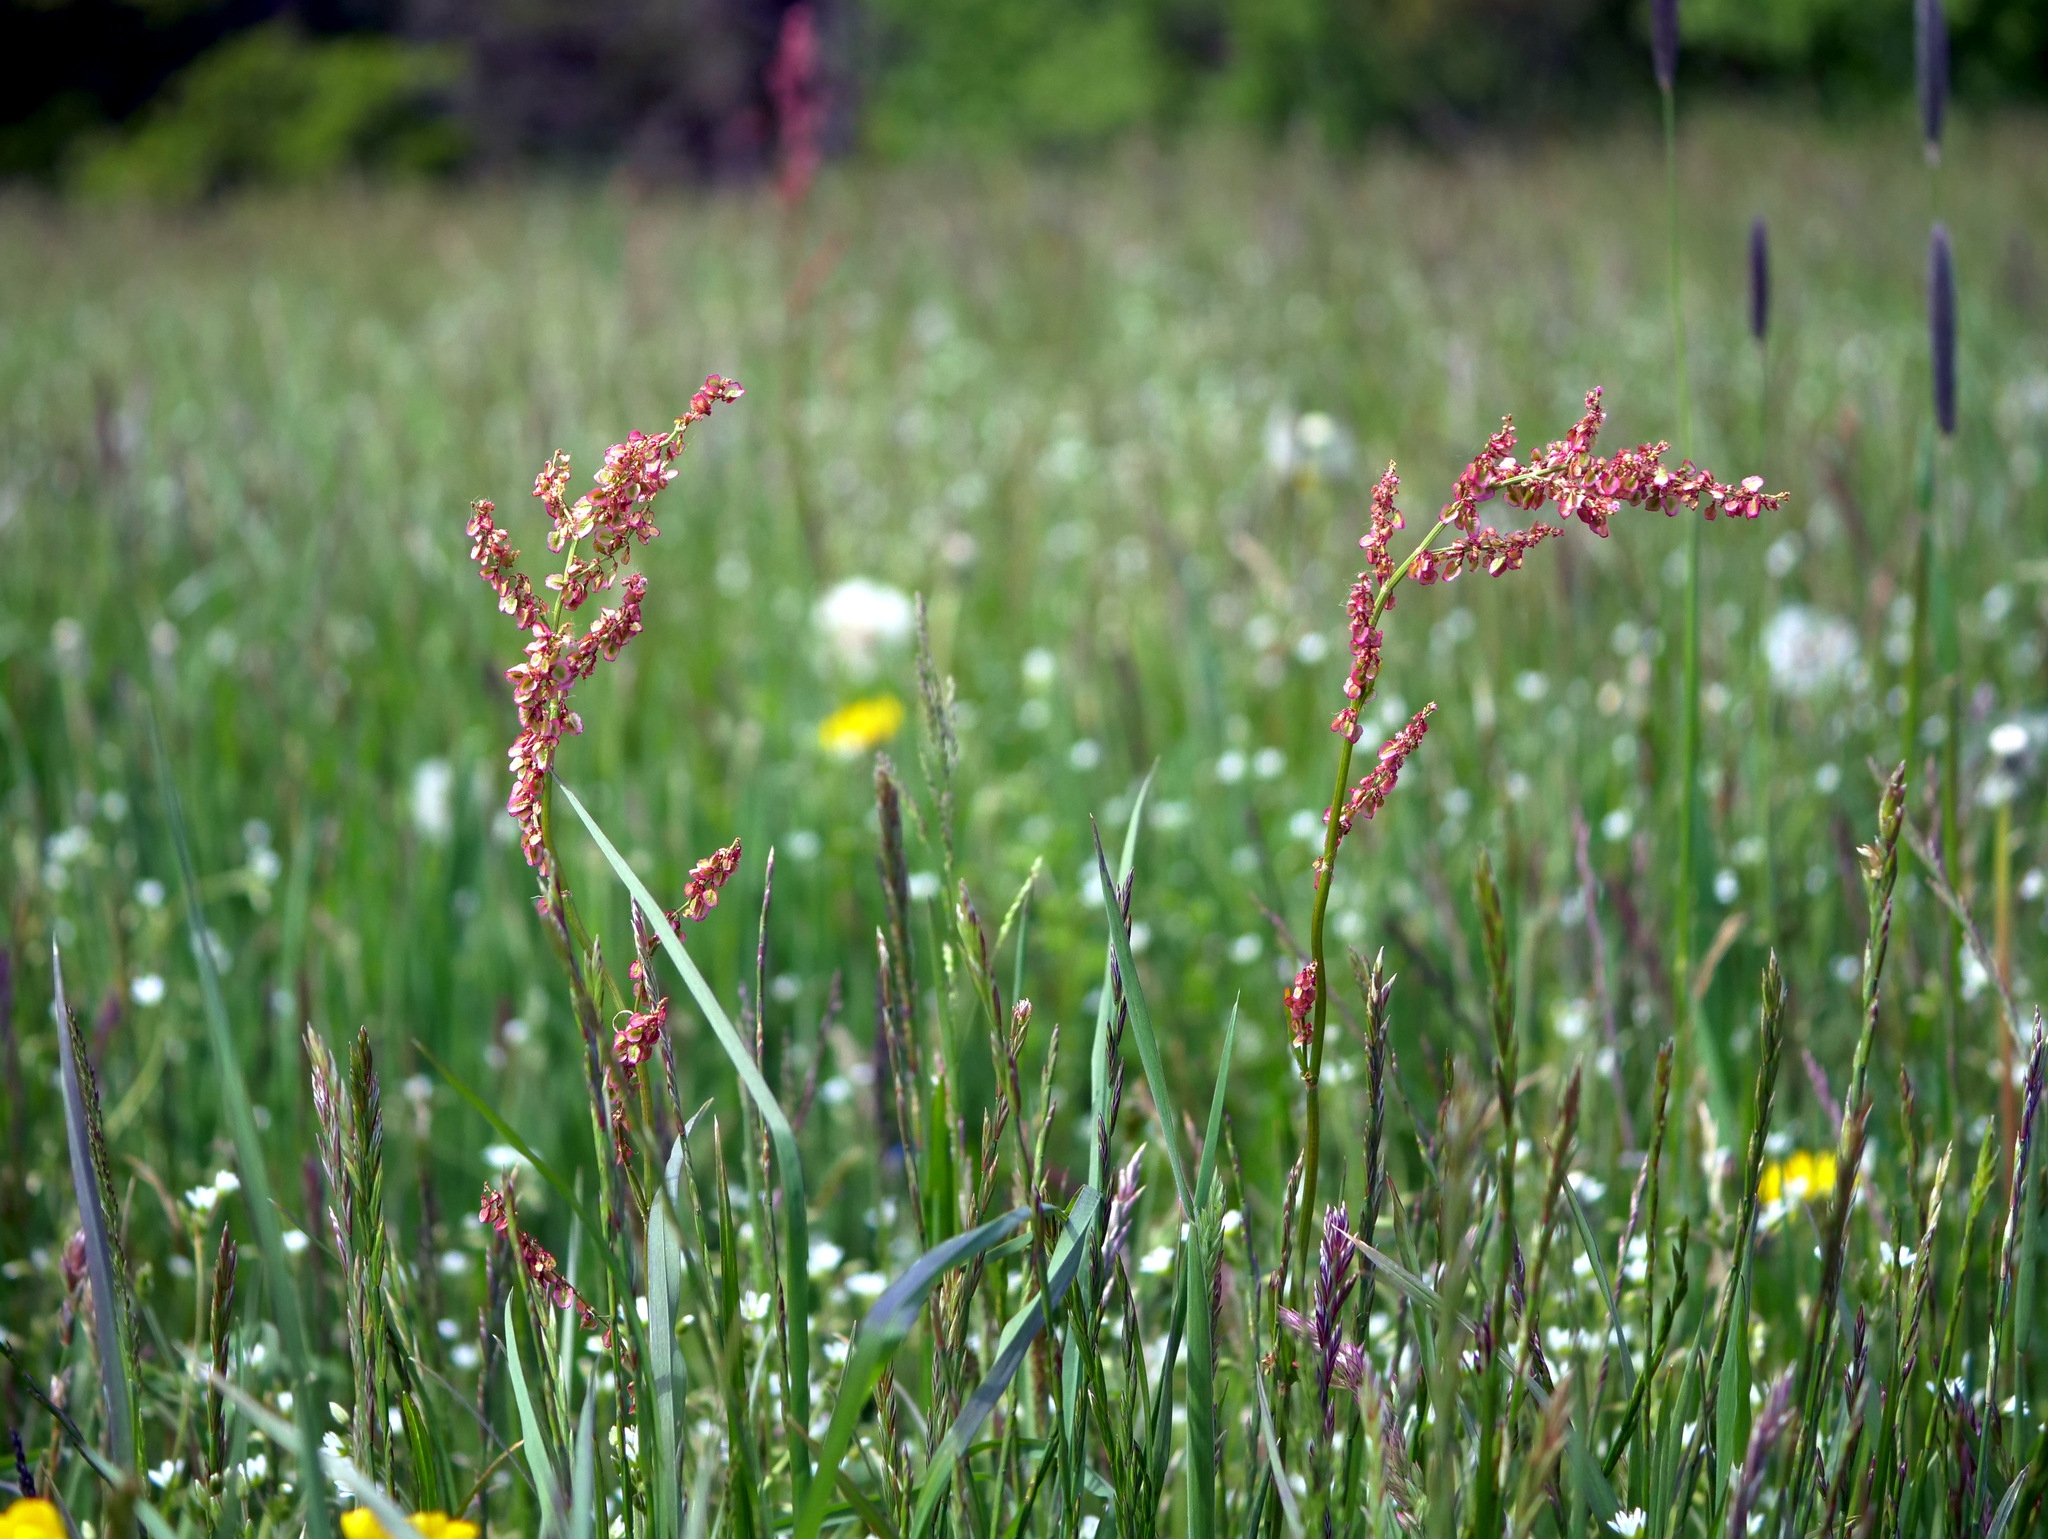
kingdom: Plantae
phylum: Tracheophyta
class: Magnoliopsida
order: Caryophyllales
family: Polygonaceae
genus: Rumex
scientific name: Rumex acetosa
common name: Garden sorrel
